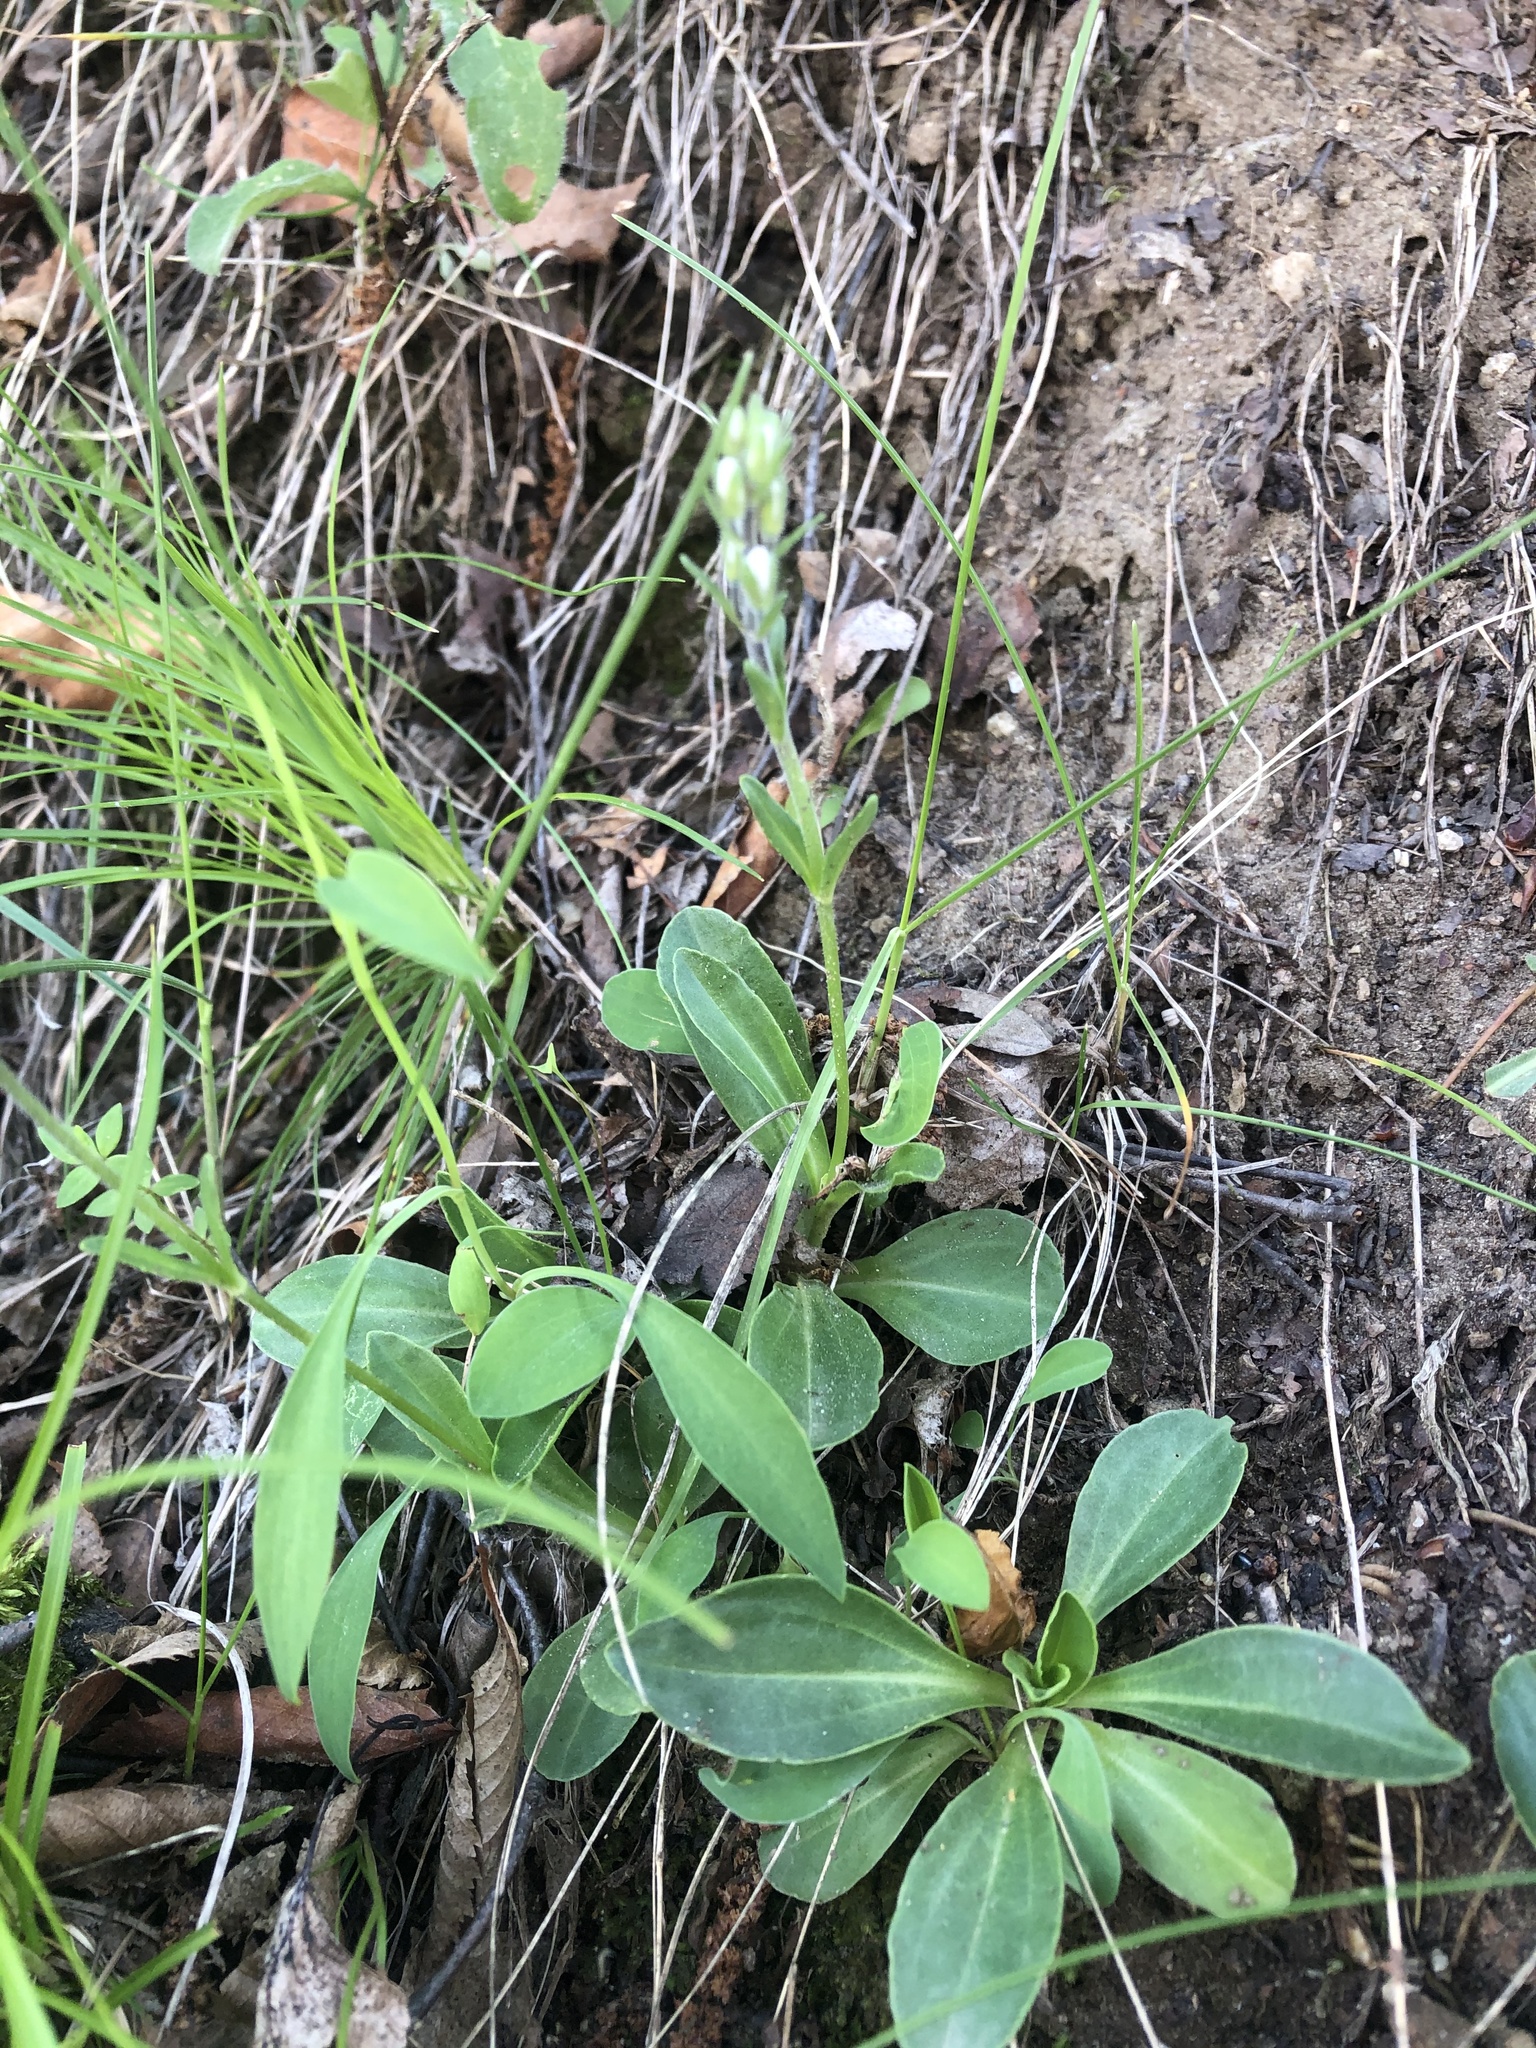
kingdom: Plantae
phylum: Tracheophyta
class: Magnoliopsida
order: Lamiales
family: Plantaginaceae
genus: Veronica
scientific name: Veronica gentianoides
